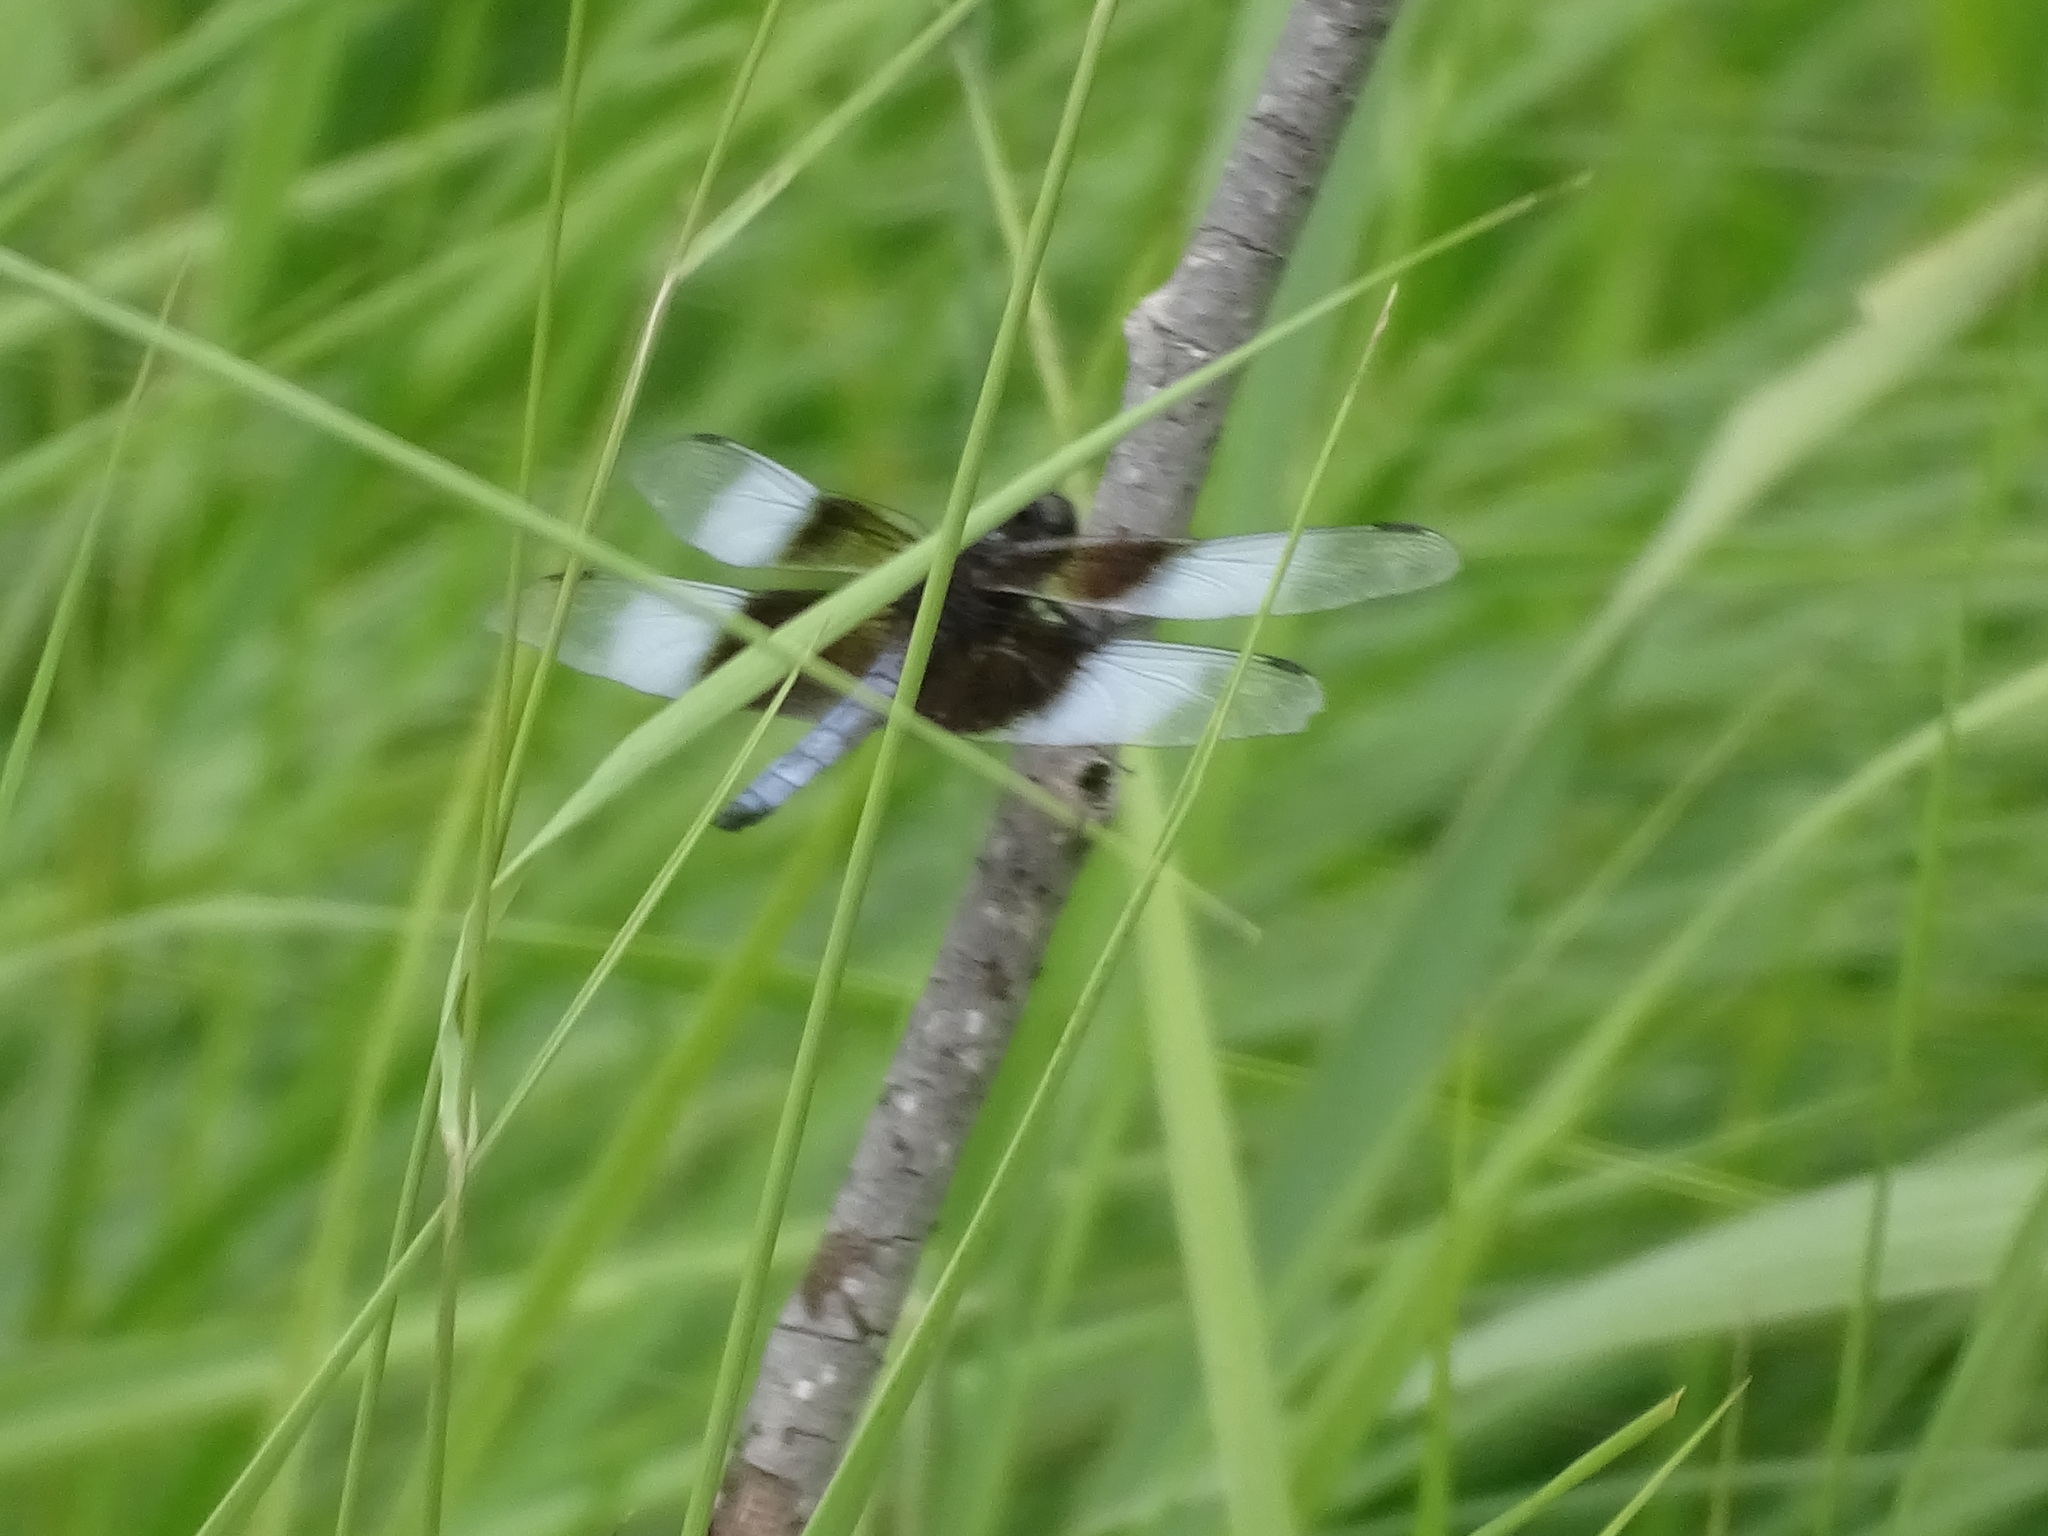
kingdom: Animalia
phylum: Arthropoda
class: Insecta
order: Odonata
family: Libellulidae
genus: Libellula
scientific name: Libellula luctuosa
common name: Widow skimmer
